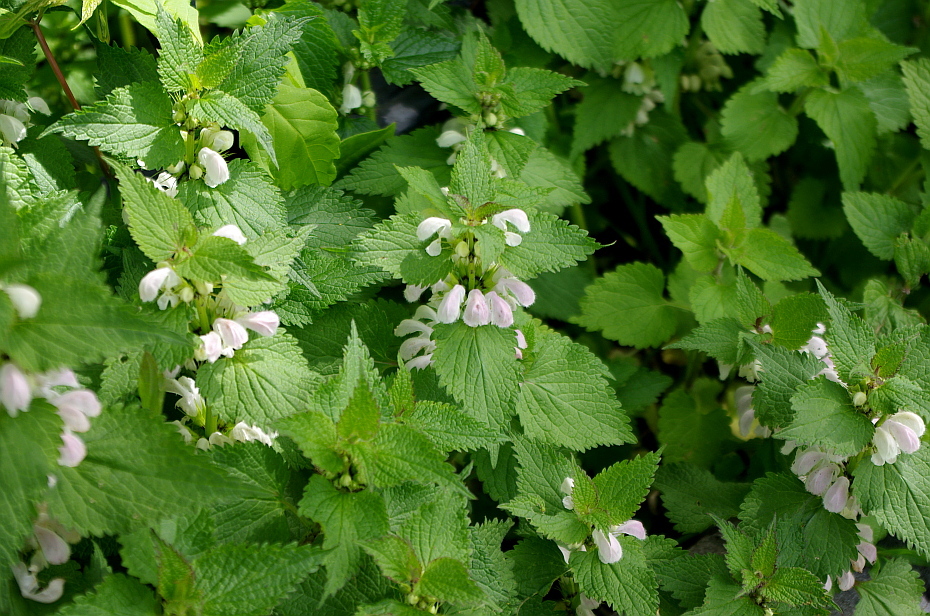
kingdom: Plantae
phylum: Tracheophyta
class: Magnoliopsida
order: Lamiales
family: Lamiaceae
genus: Lamium
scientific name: Lamium album
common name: White dead-nettle
